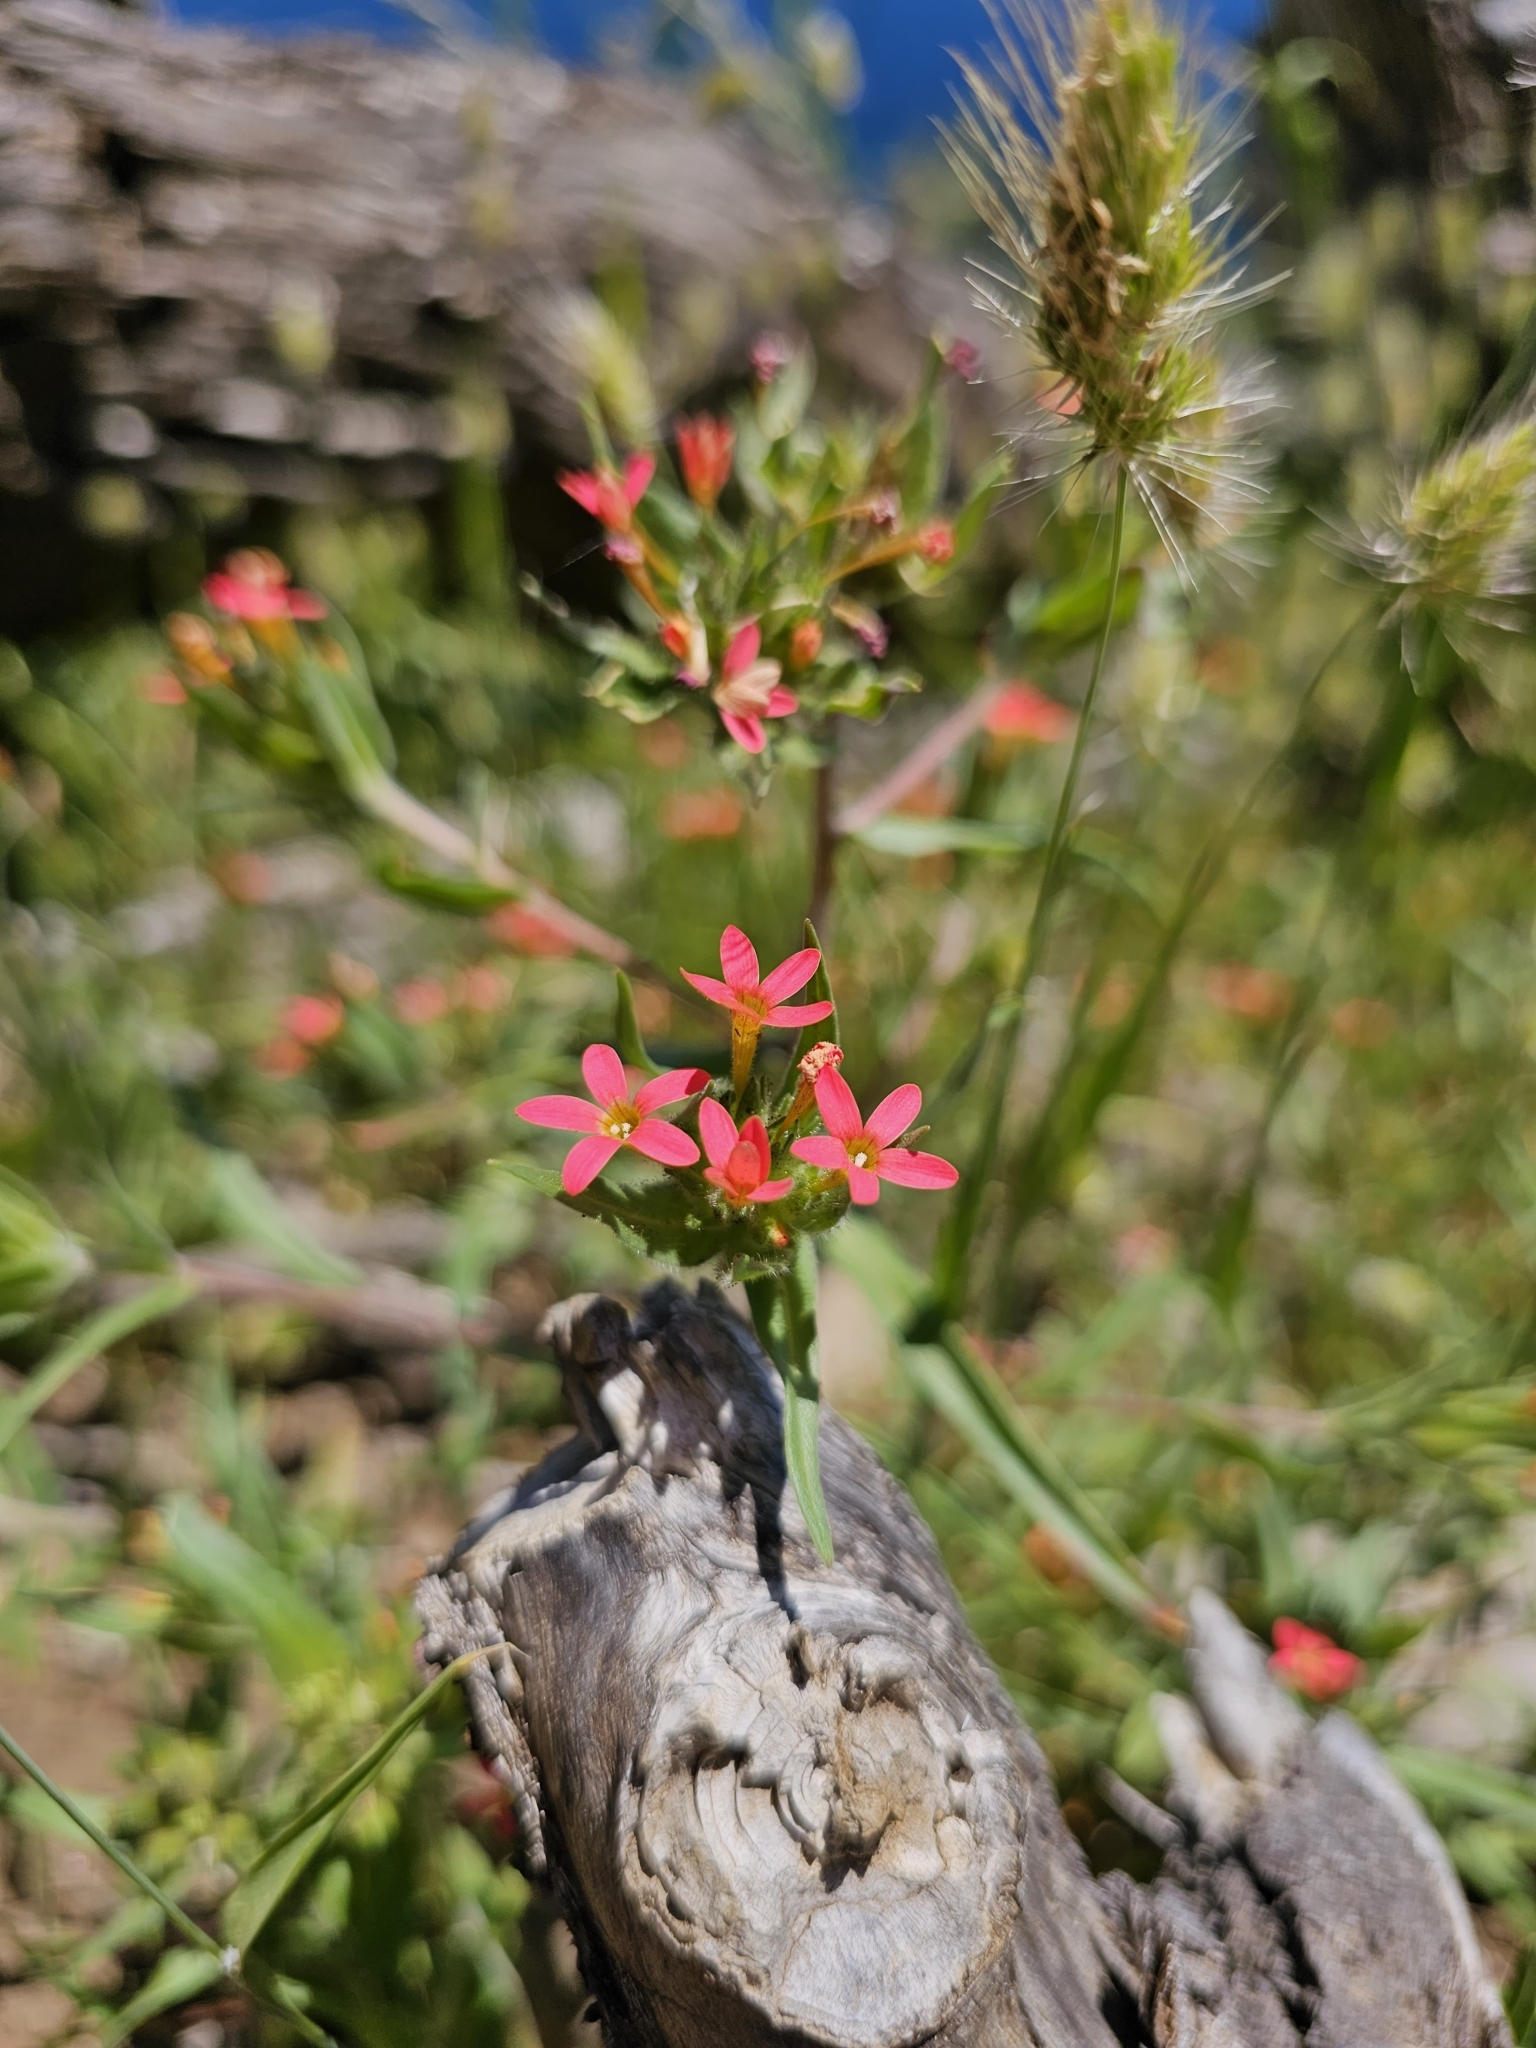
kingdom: Plantae
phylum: Tracheophyta
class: Magnoliopsida
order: Ericales
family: Polemoniaceae
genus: Collomia
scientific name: Collomia biflora
